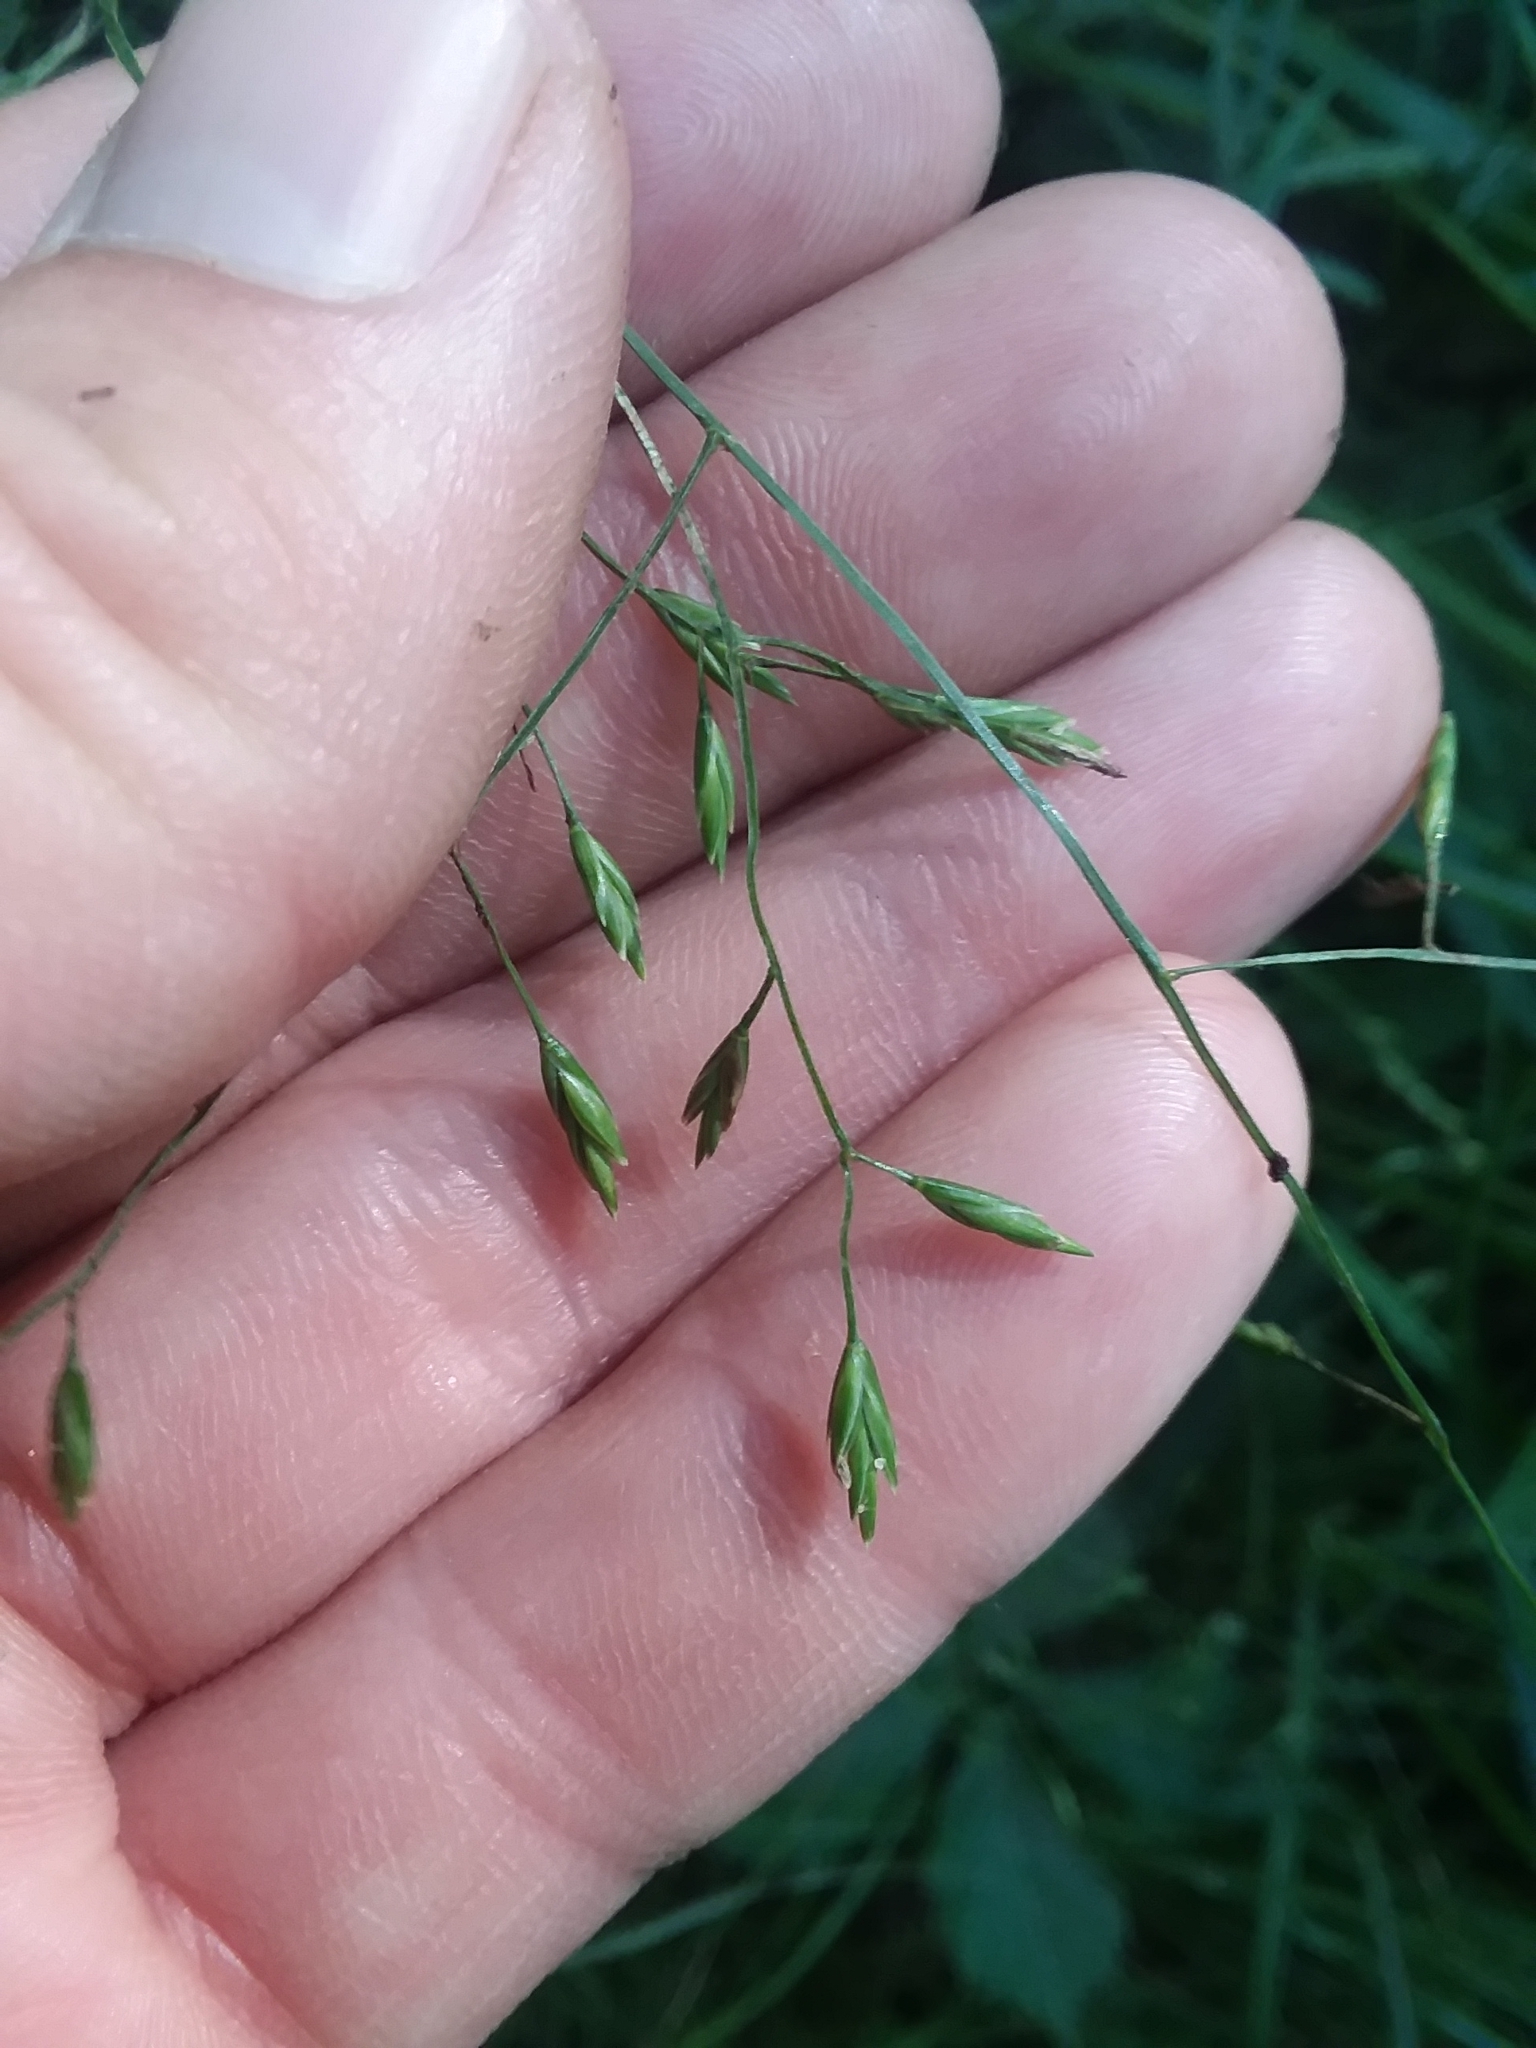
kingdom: Plantae
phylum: Tracheophyta
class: Liliopsida
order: Poales
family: Poaceae
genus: Festuca
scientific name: Festuca subverticillata
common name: Nodding fescue
